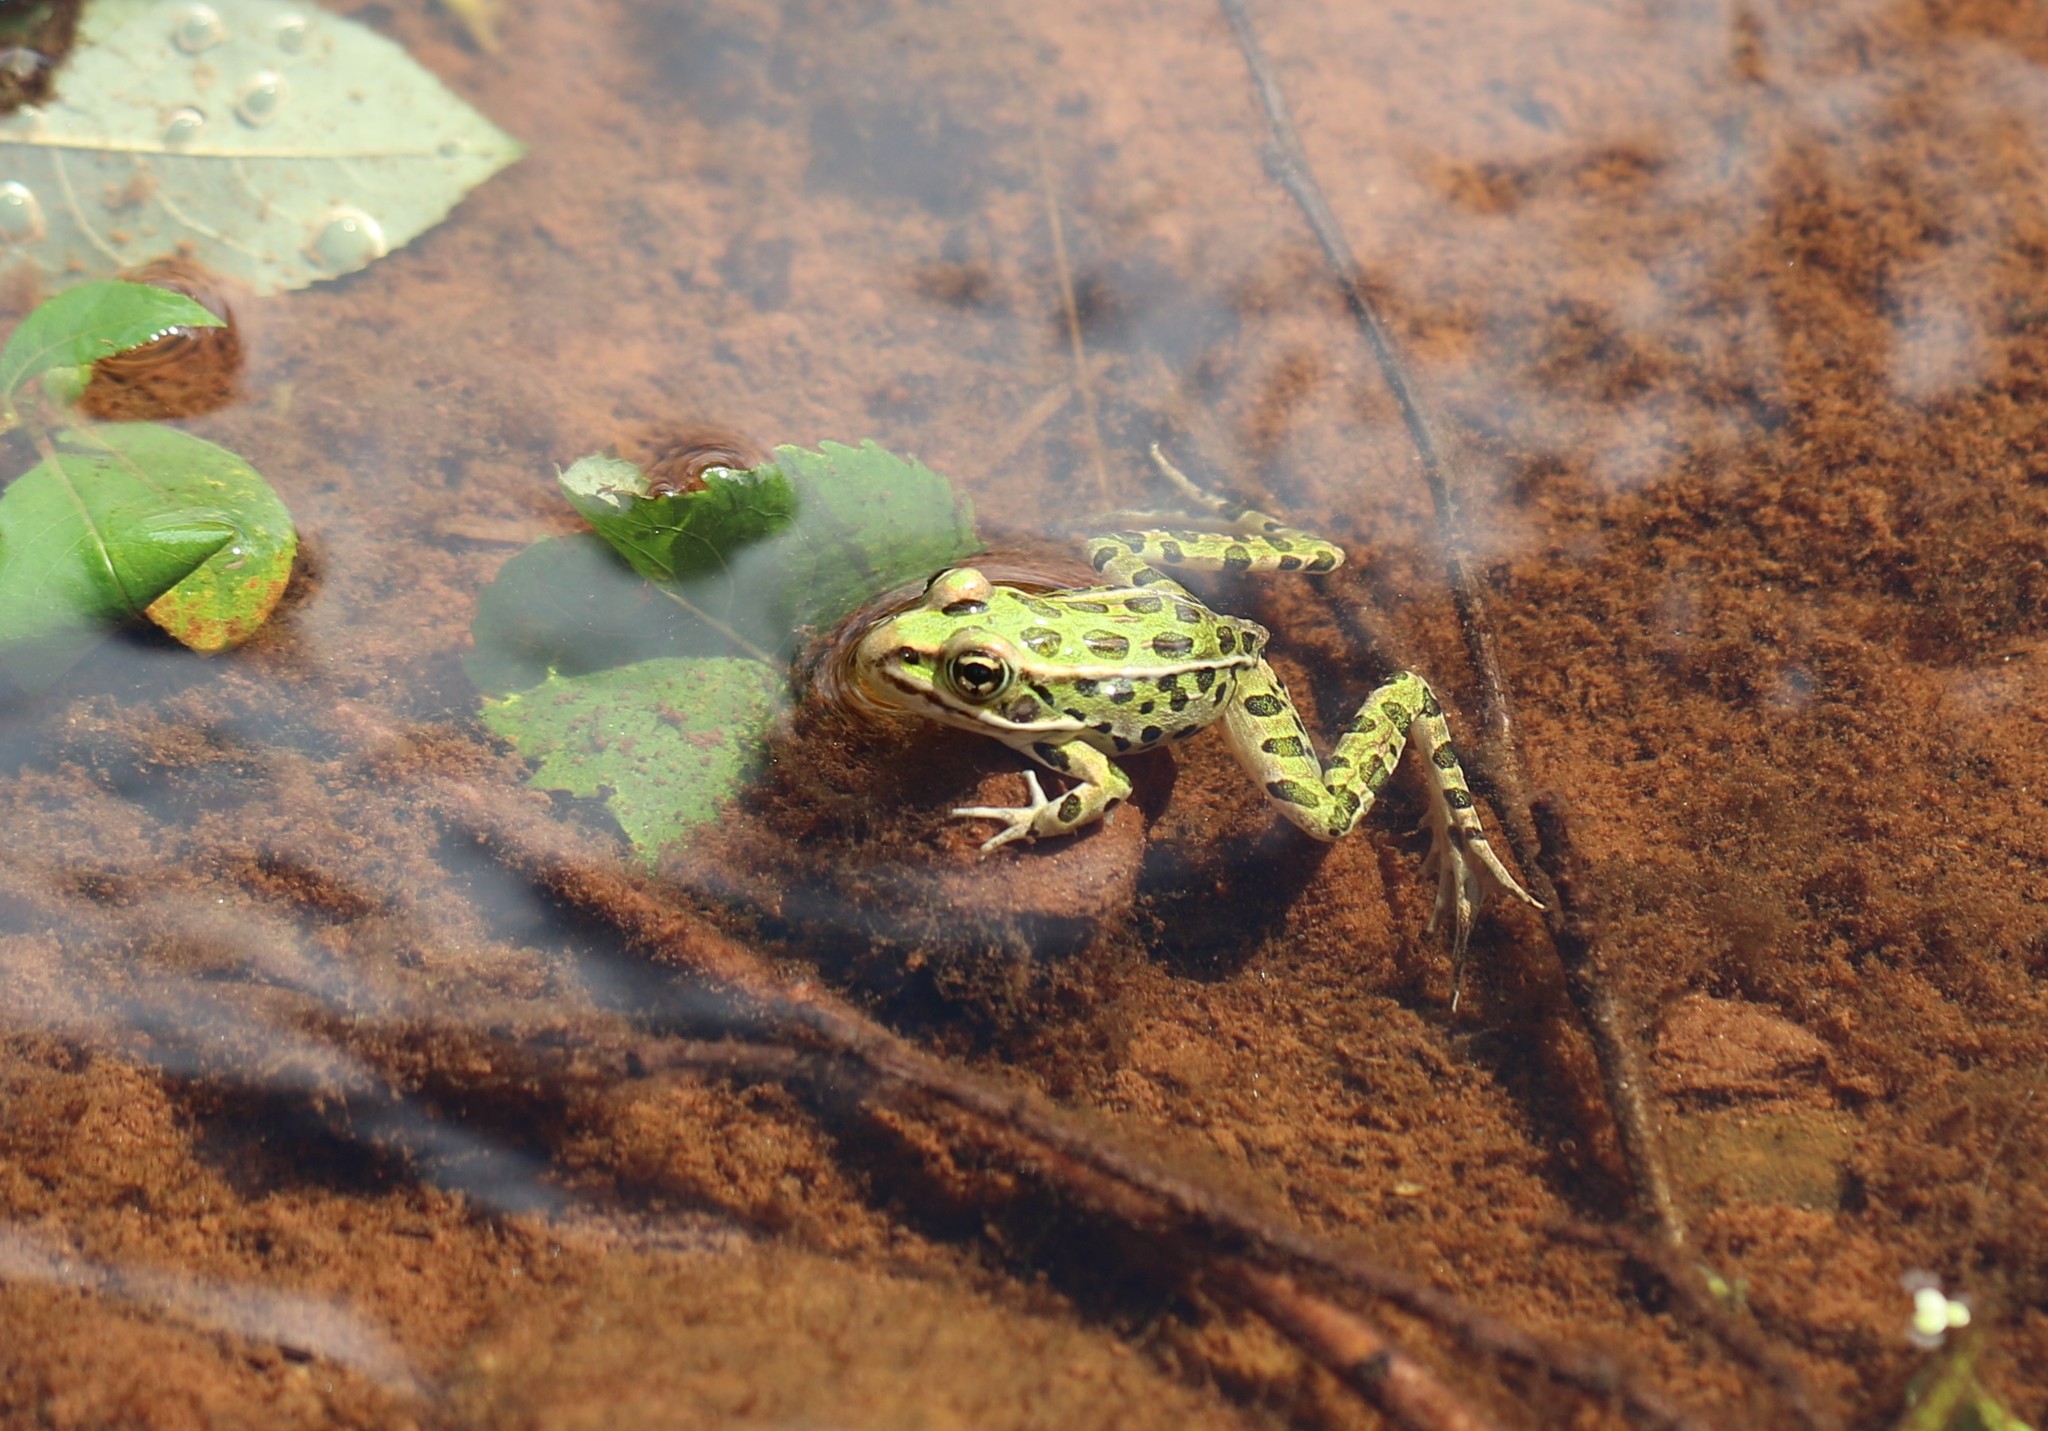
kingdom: Animalia
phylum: Chordata
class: Amphibia
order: Anura
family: Ranidae
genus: Lithobates
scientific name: Lithobates pipiens
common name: Northern leopard frog
